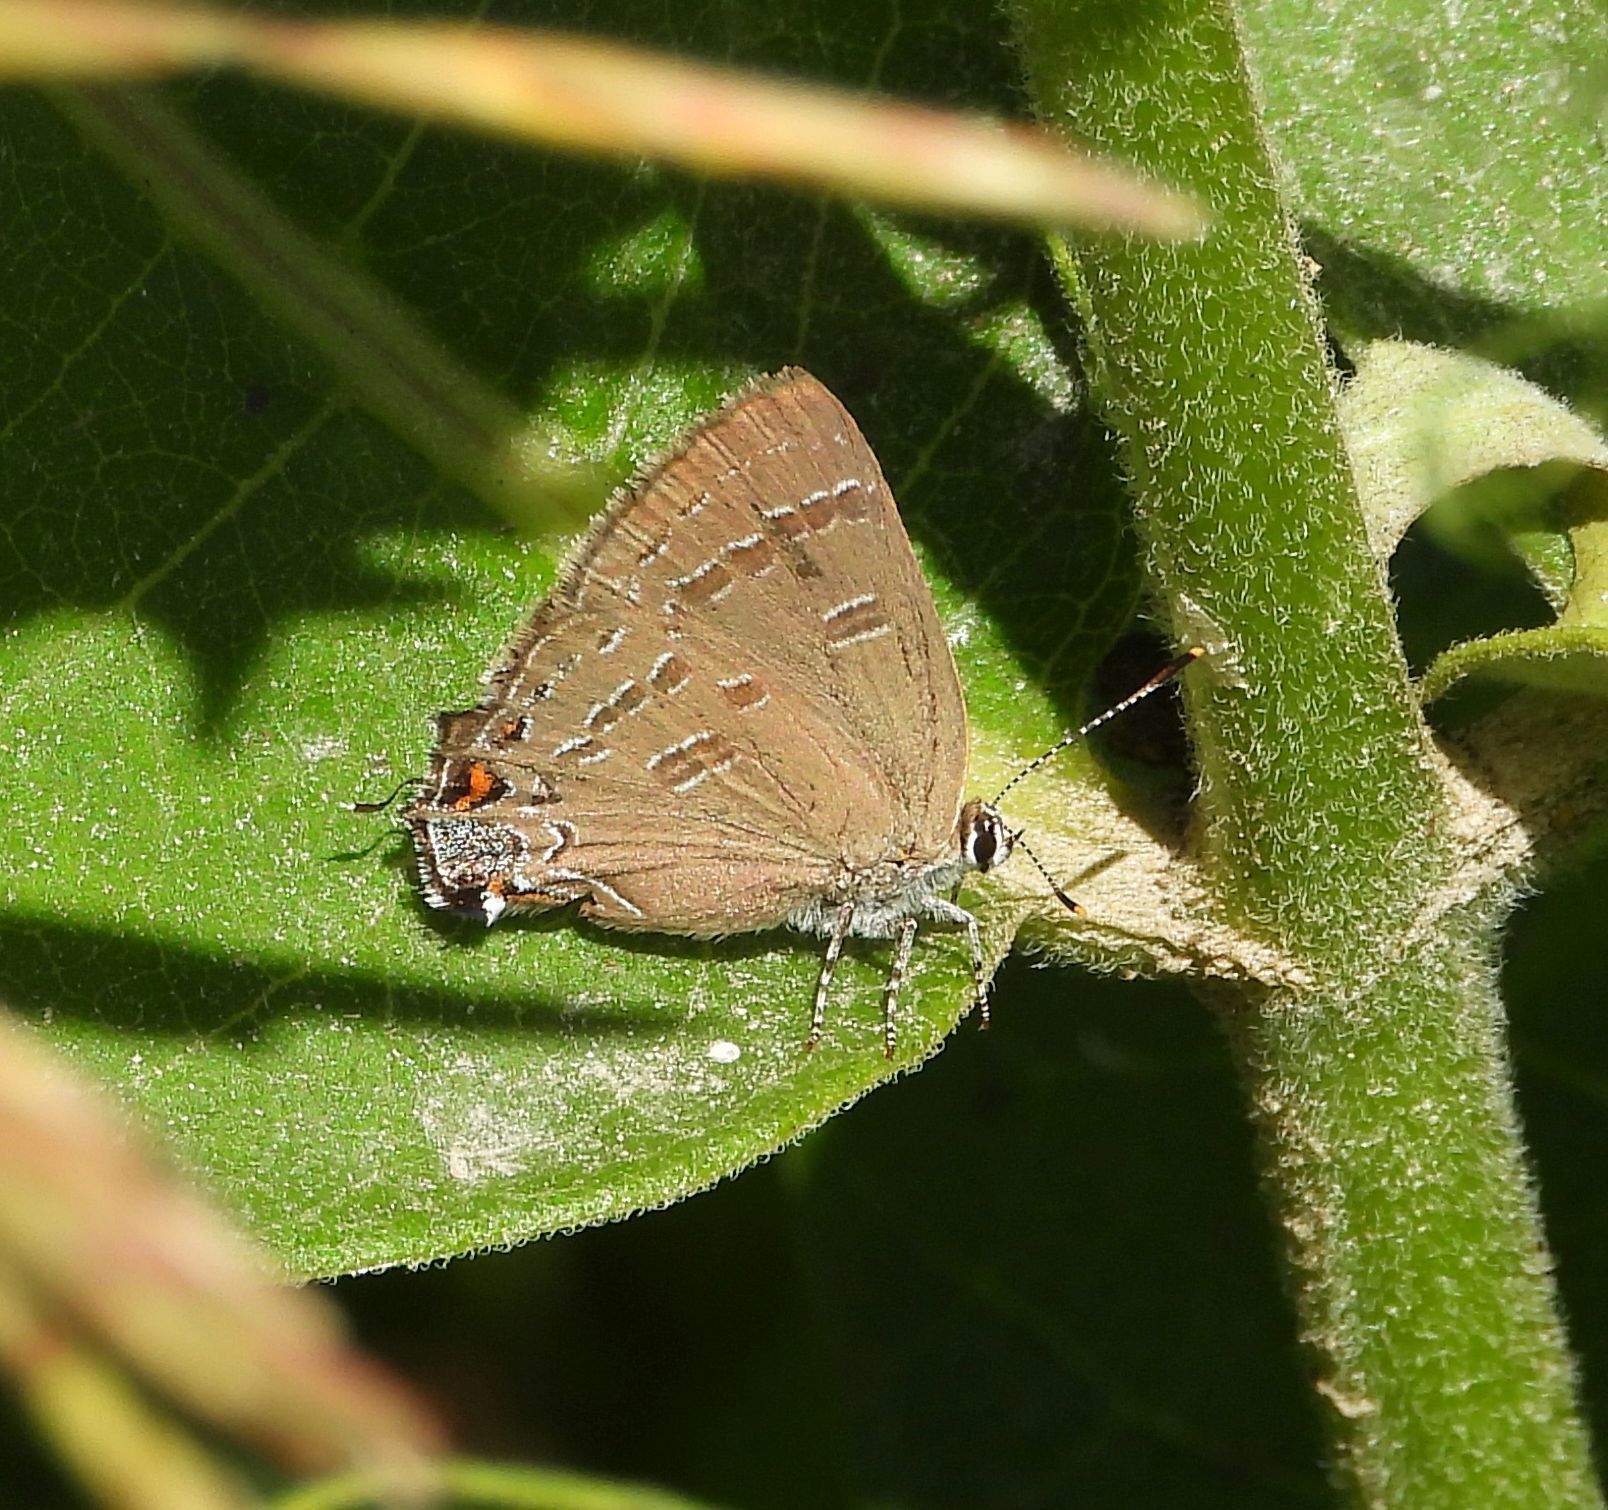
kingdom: Animalia
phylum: Arthropoda
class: Insecta
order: Lepidoptera
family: Lycaenidae
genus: Satyrium
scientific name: Satyrium calanus
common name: Banded hairstreak
